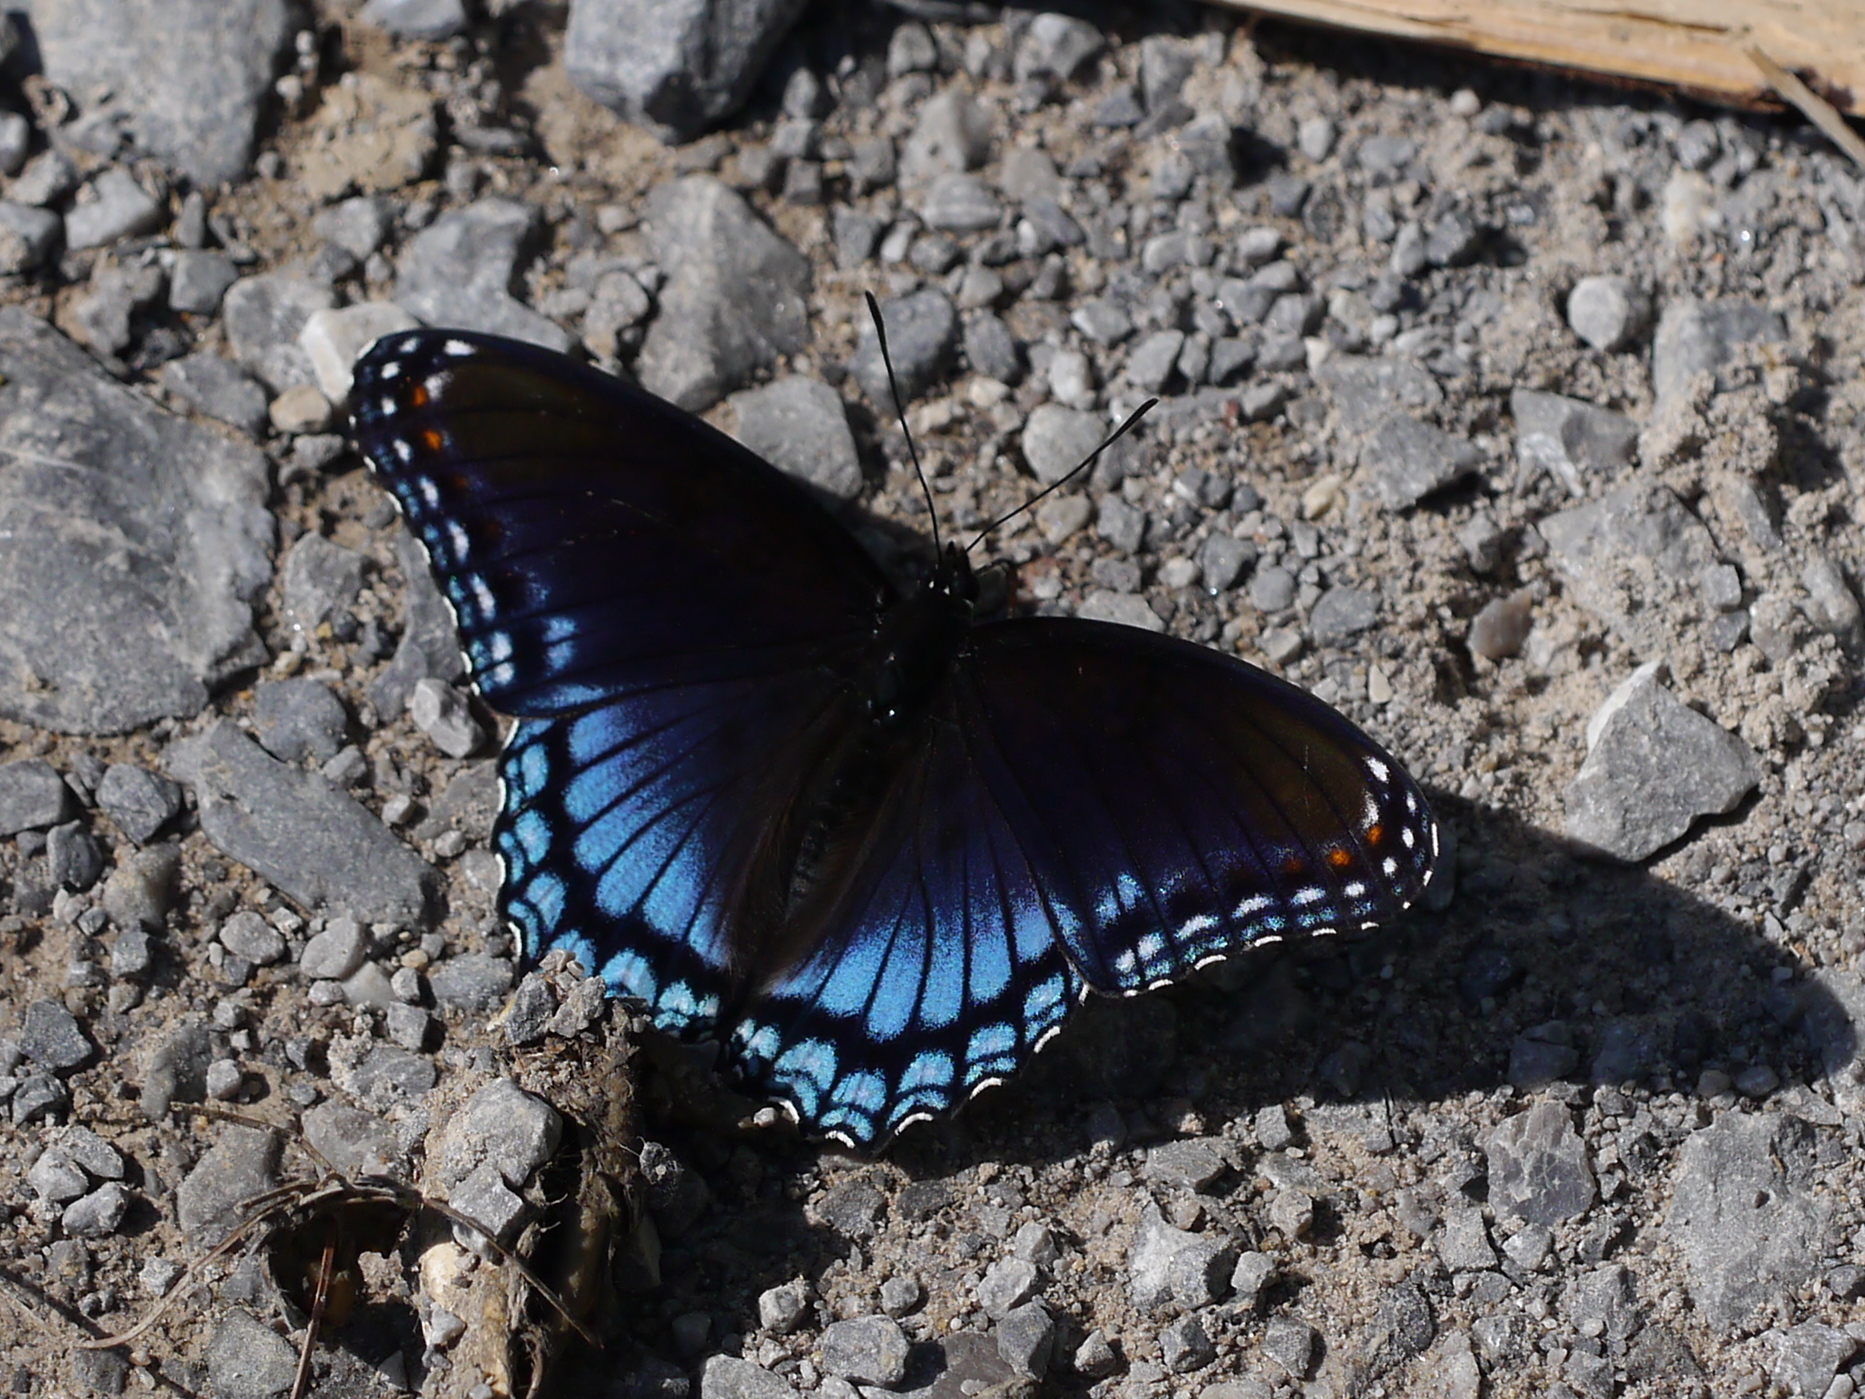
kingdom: Animalia
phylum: Arthropoda
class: Insecta
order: Lepidoptera
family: Nymphalidae
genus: Limenitis
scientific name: Limenitis astyanax
